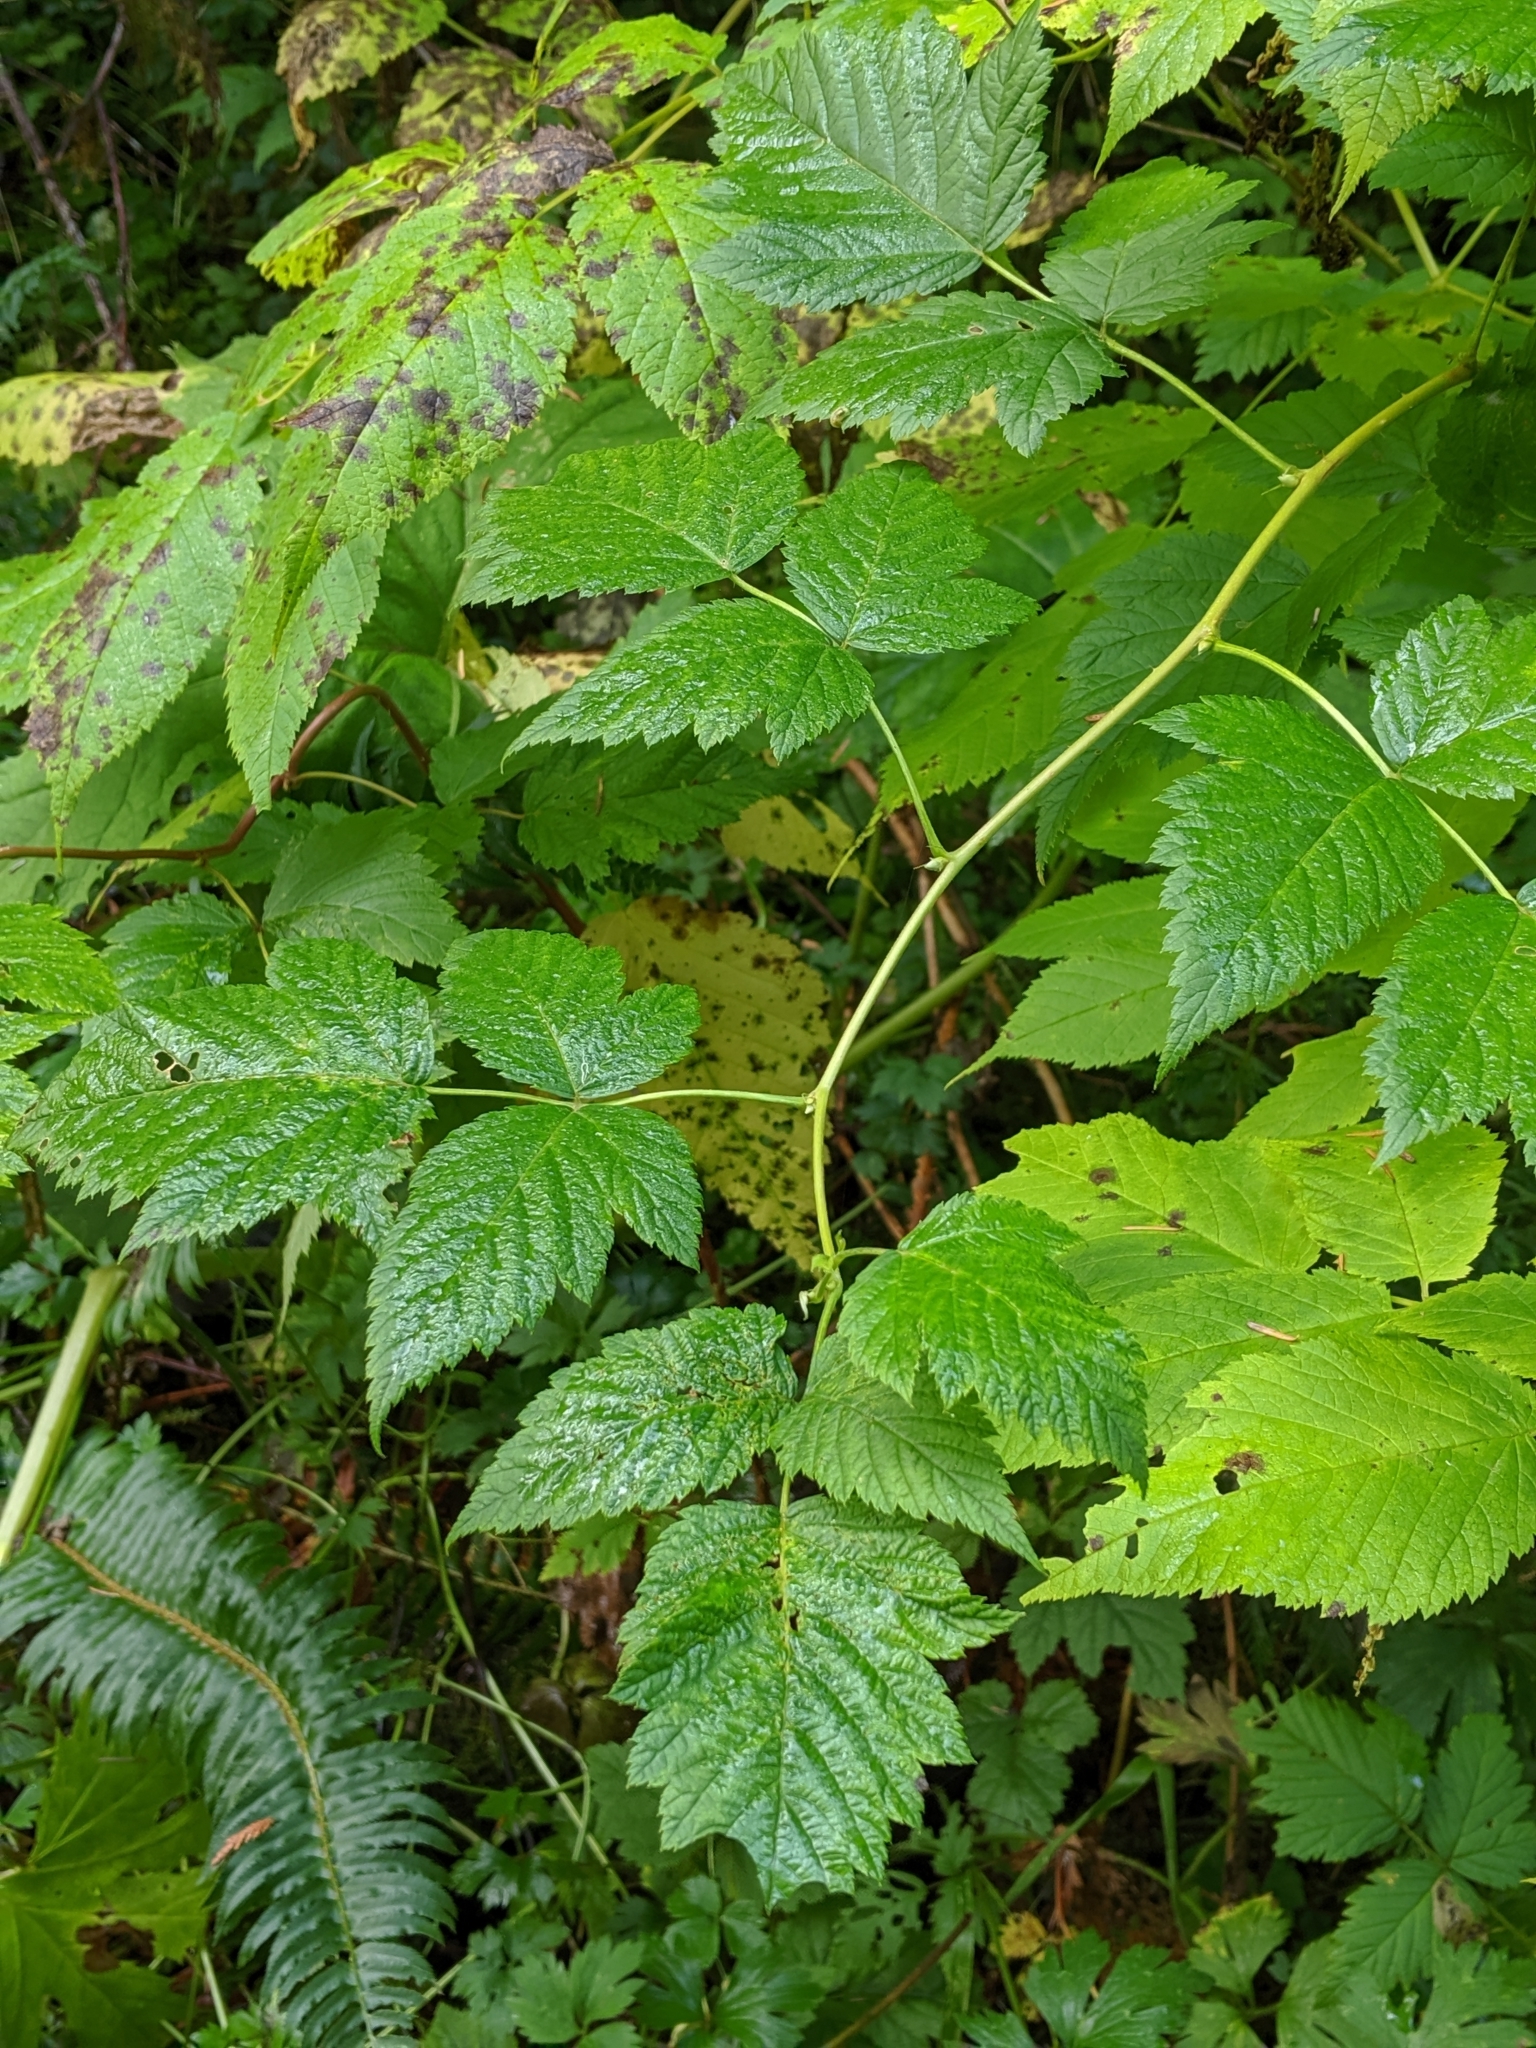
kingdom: Plantae
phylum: Tracheophyta
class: Magnoliopsida
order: Rosales
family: Rosaceae
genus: Aruncus
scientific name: Aruncus dioicus
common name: Buck's-beard
